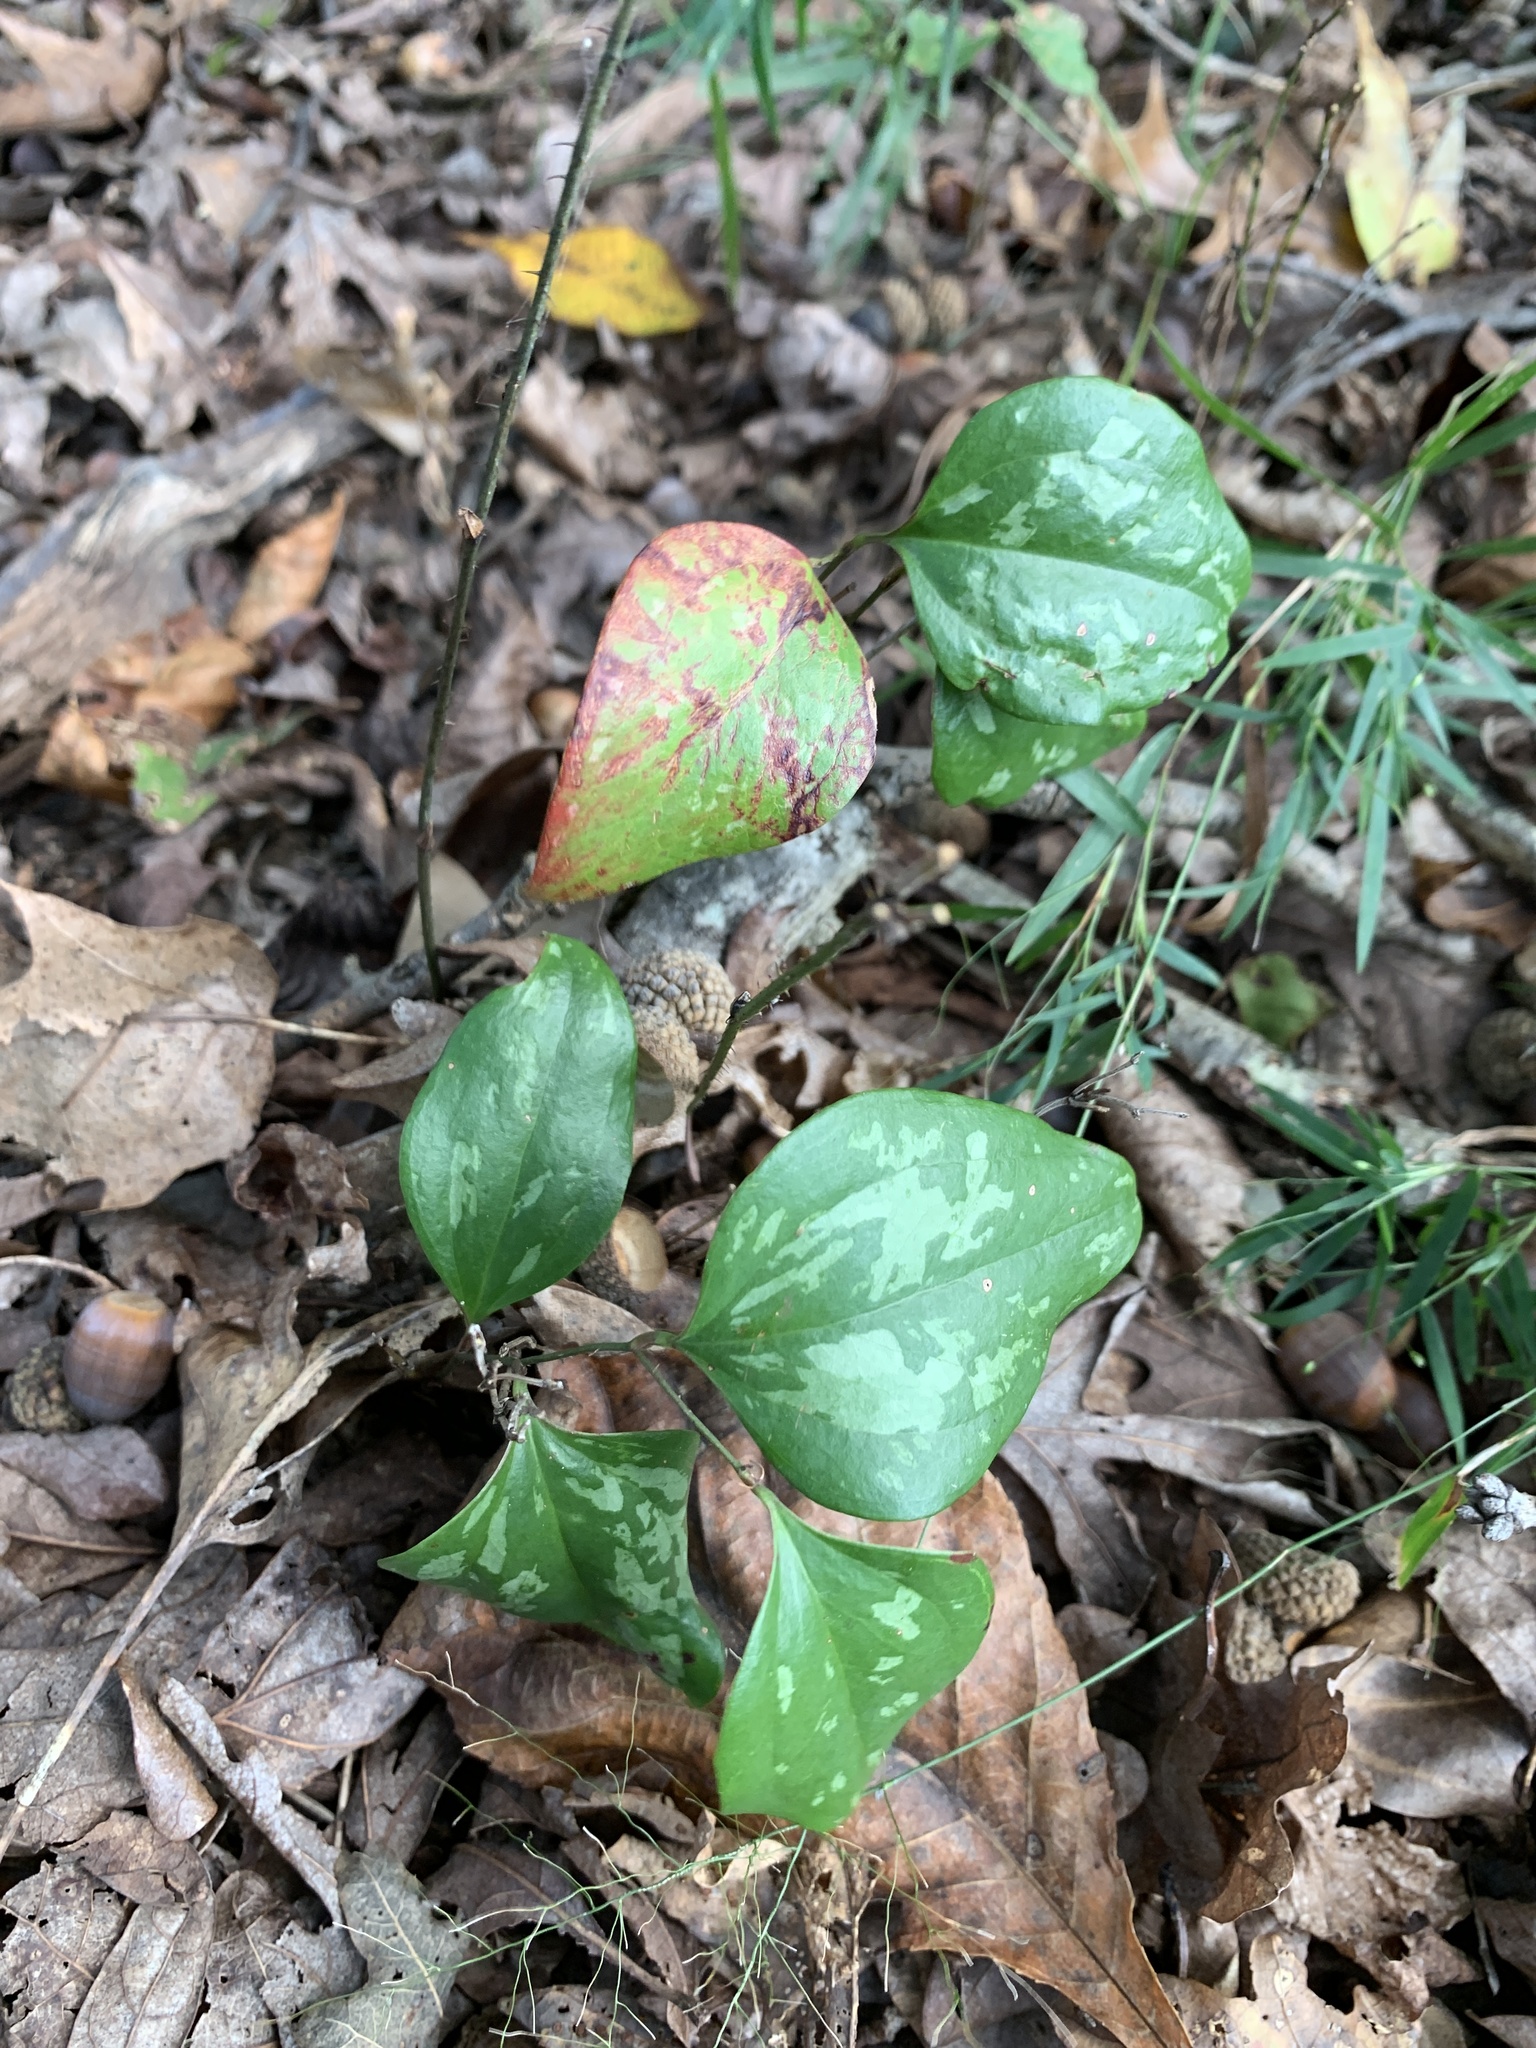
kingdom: Plantae
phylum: Tracheophyta
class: Liliopsida
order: Liliales
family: Smilacaceae
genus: Smilax
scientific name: Smilax glauca
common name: Cat greenbrier
